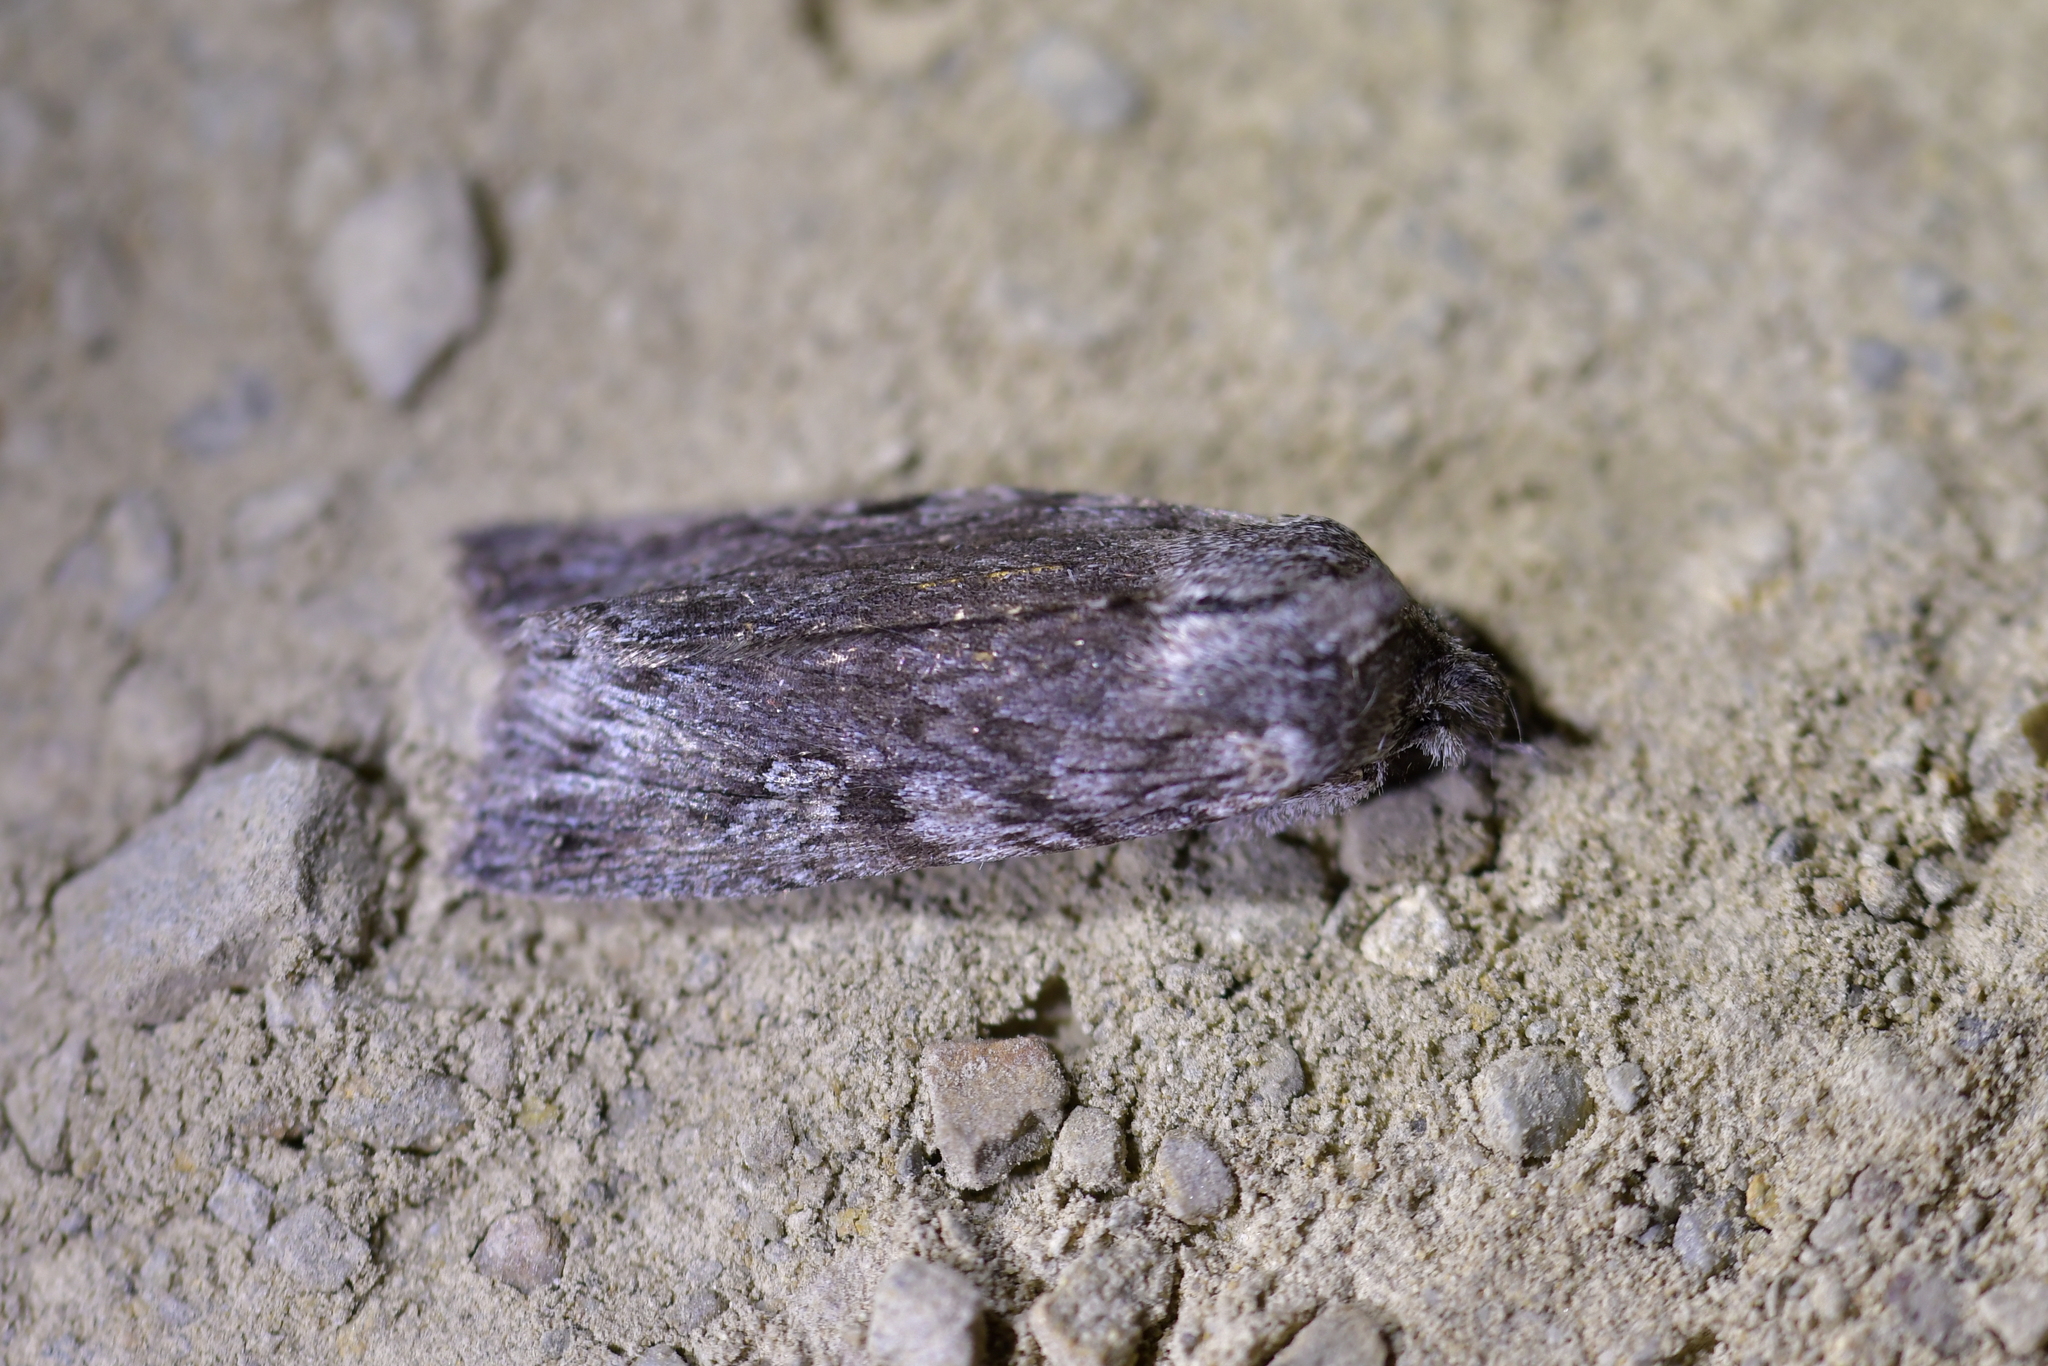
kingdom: Animalia
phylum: Arthropoda
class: Insecta
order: Lepidoptera
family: Noctuidae
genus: Physetica
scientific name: Physetica phricias
